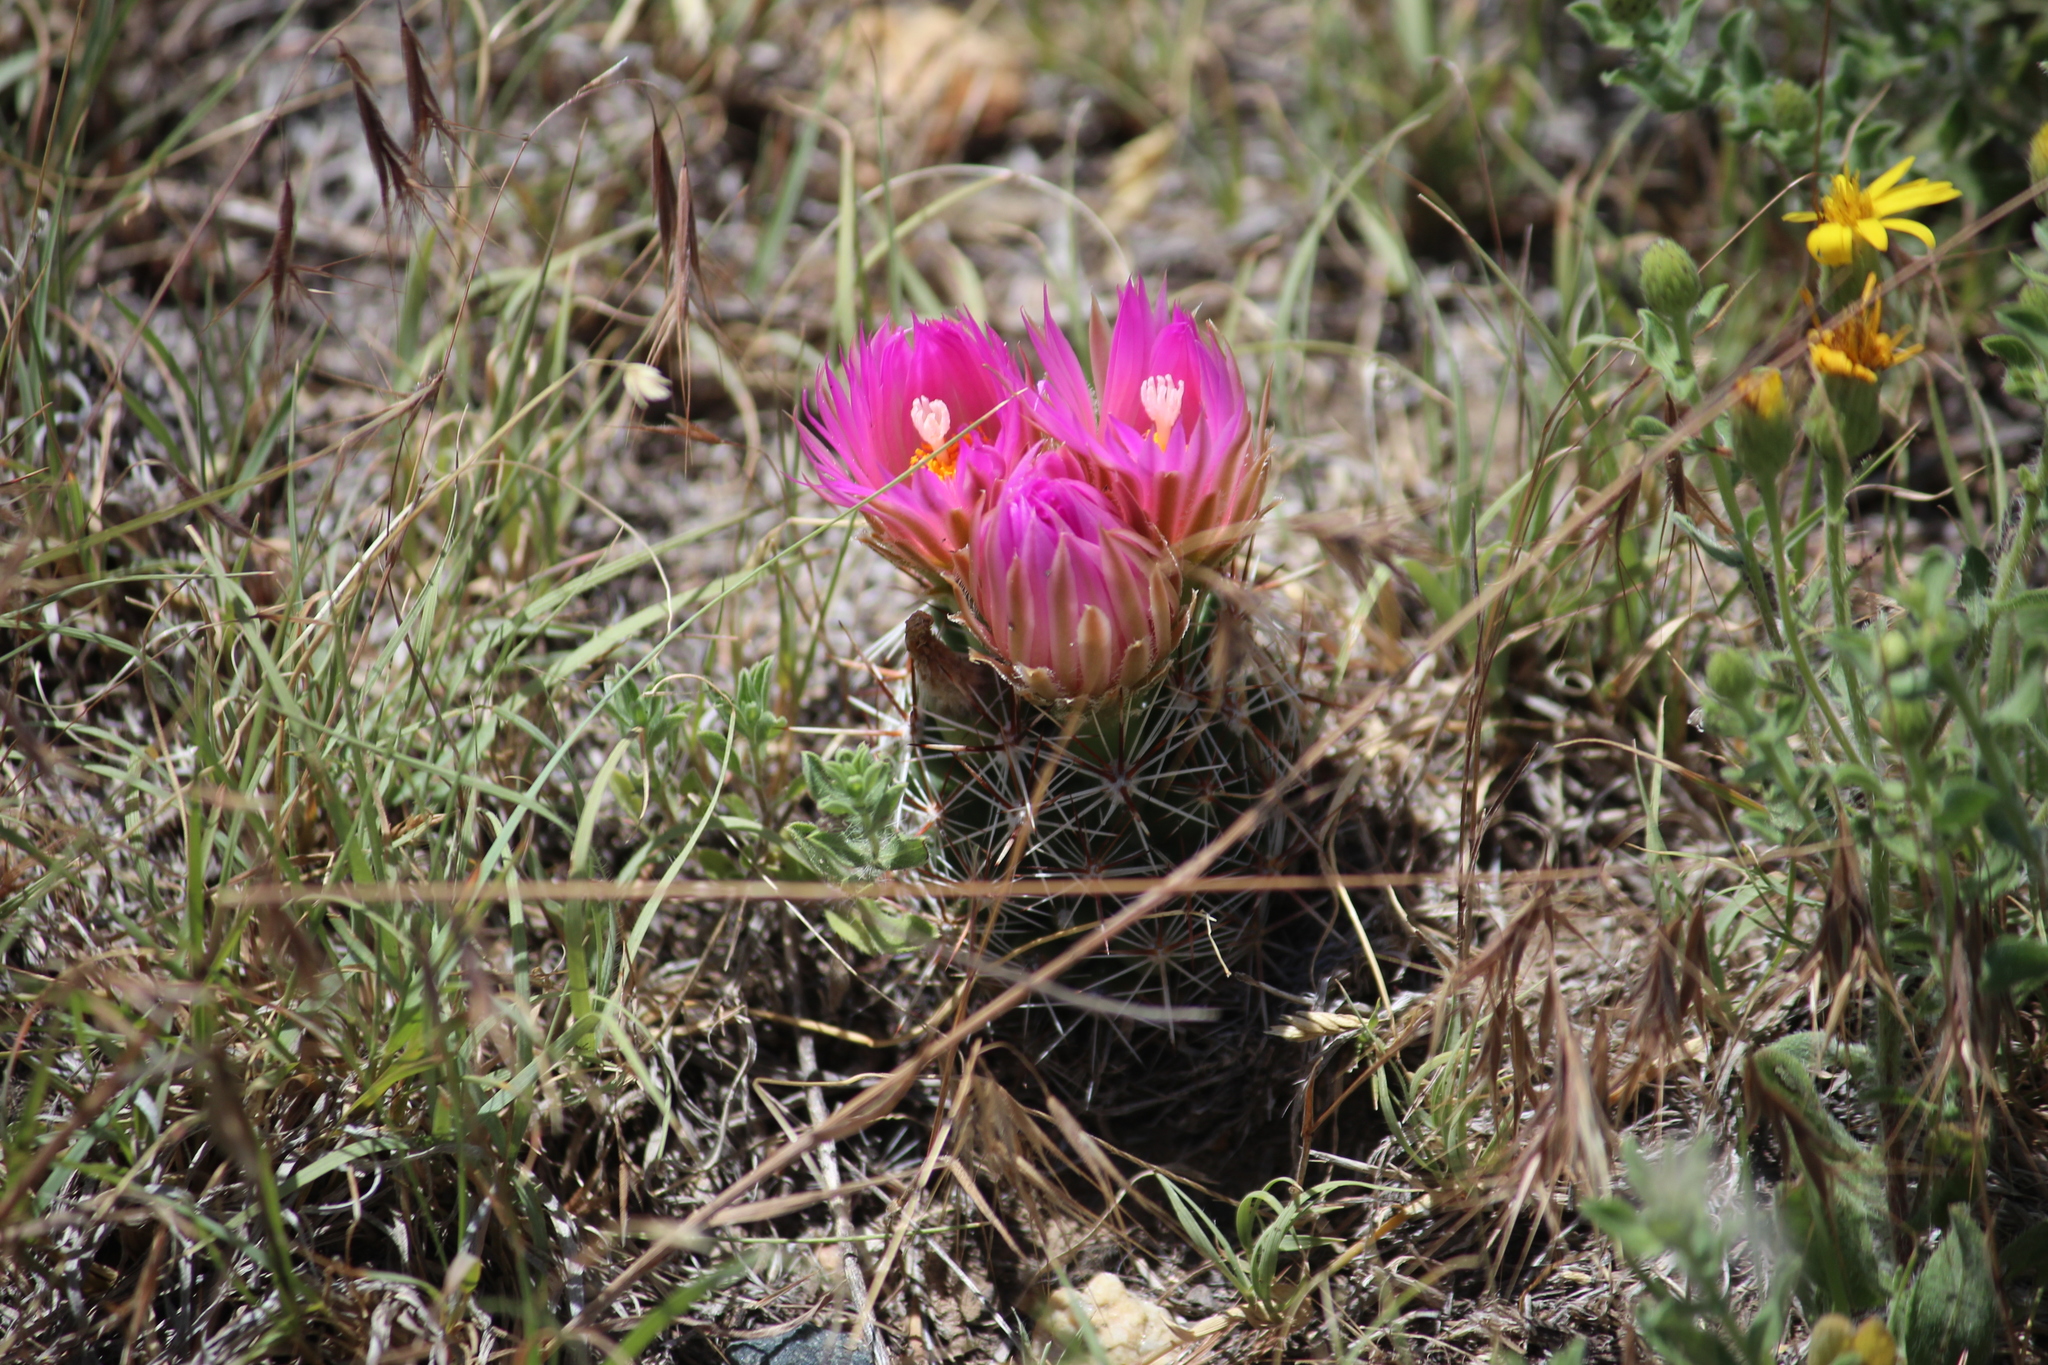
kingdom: Plantae
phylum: Tracheophyta
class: Magnoliopsida
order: Caryophyllales
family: Cactaceae
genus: Pelecyphora
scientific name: Pelecyphora vivipara
